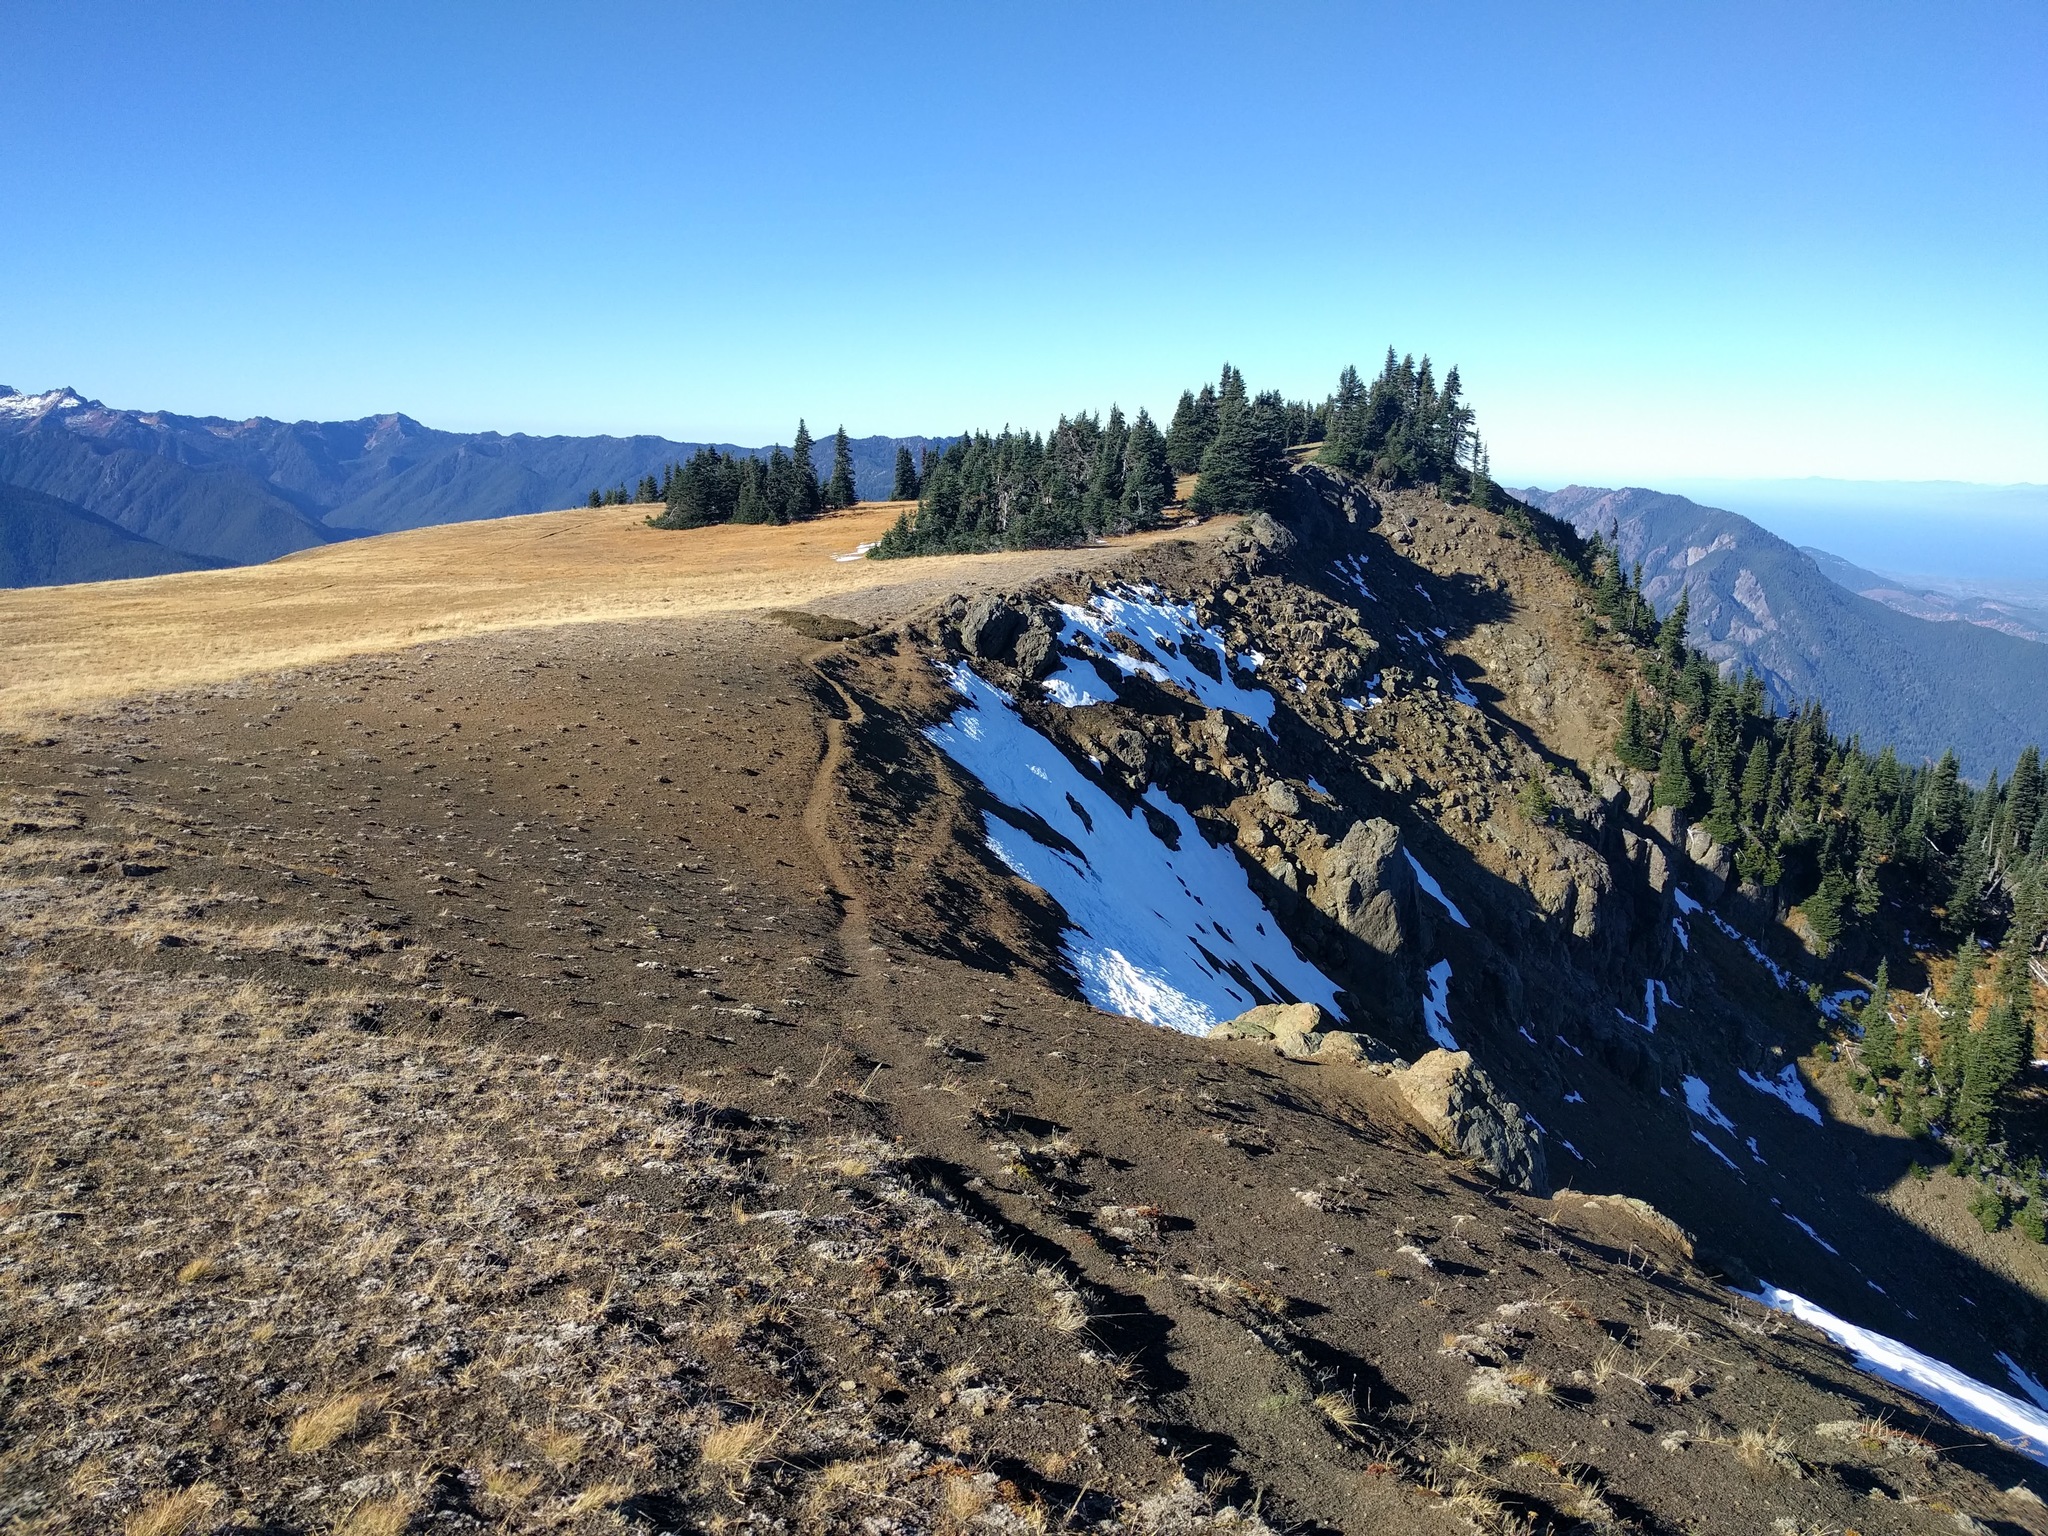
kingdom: Plantae
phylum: Tracheophyta
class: Magnoliopsida
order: Caryophyllales
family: Polygonaceae
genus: Eriogonum
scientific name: Eriogonum ovalifolium
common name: Cushion buckwheat
